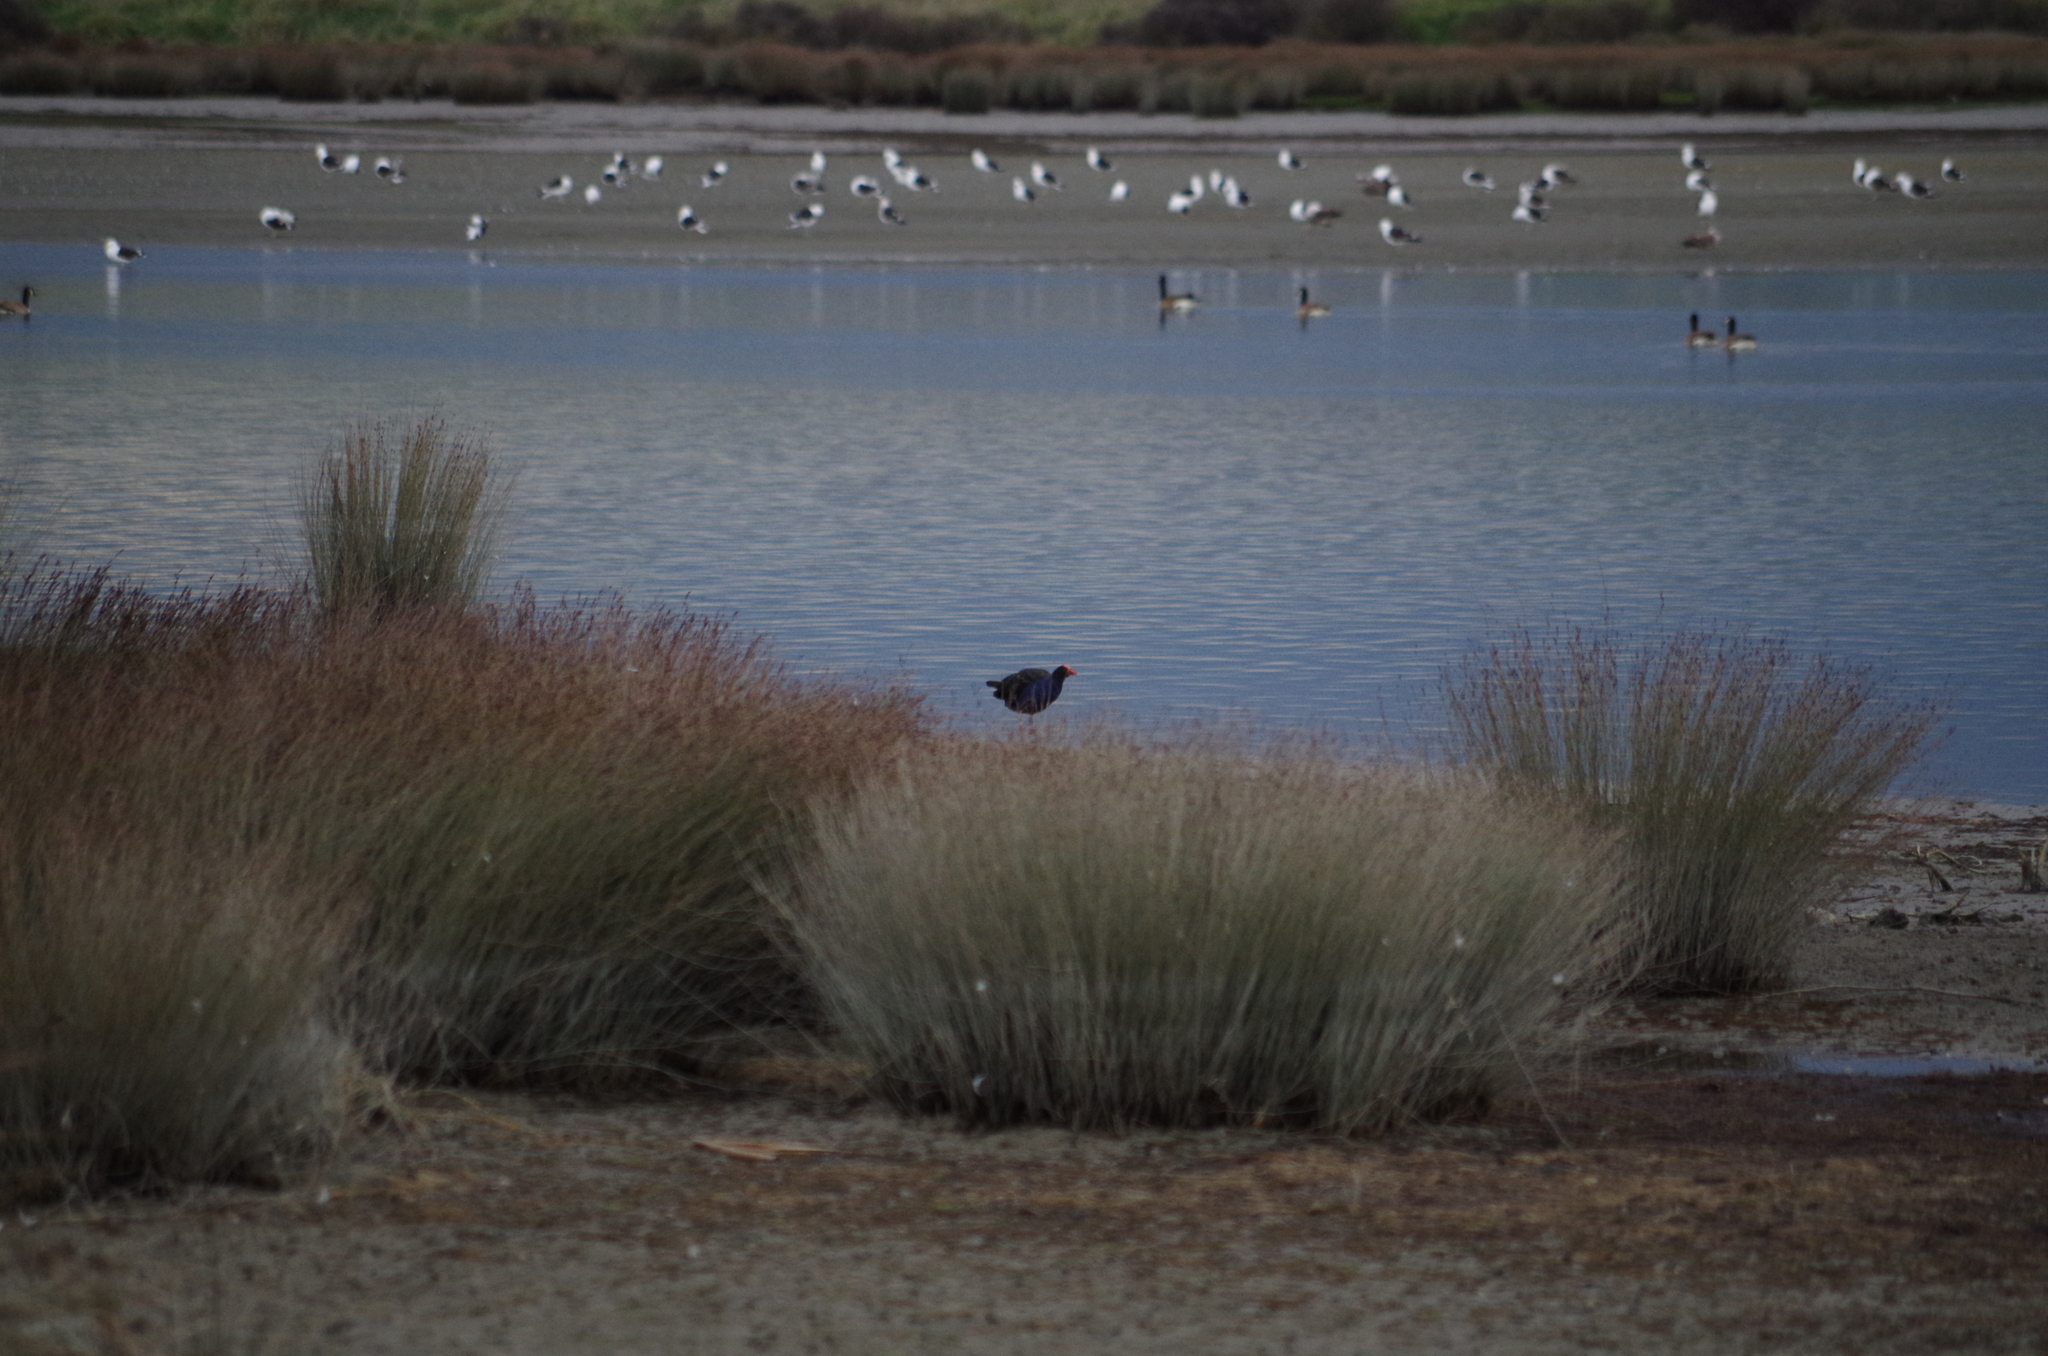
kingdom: Animalia
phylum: Chordata
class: Aves
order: Gruiformes
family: Rallidae
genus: Porphyrio
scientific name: Porphyrio melanotus
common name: Australasian swamphen
